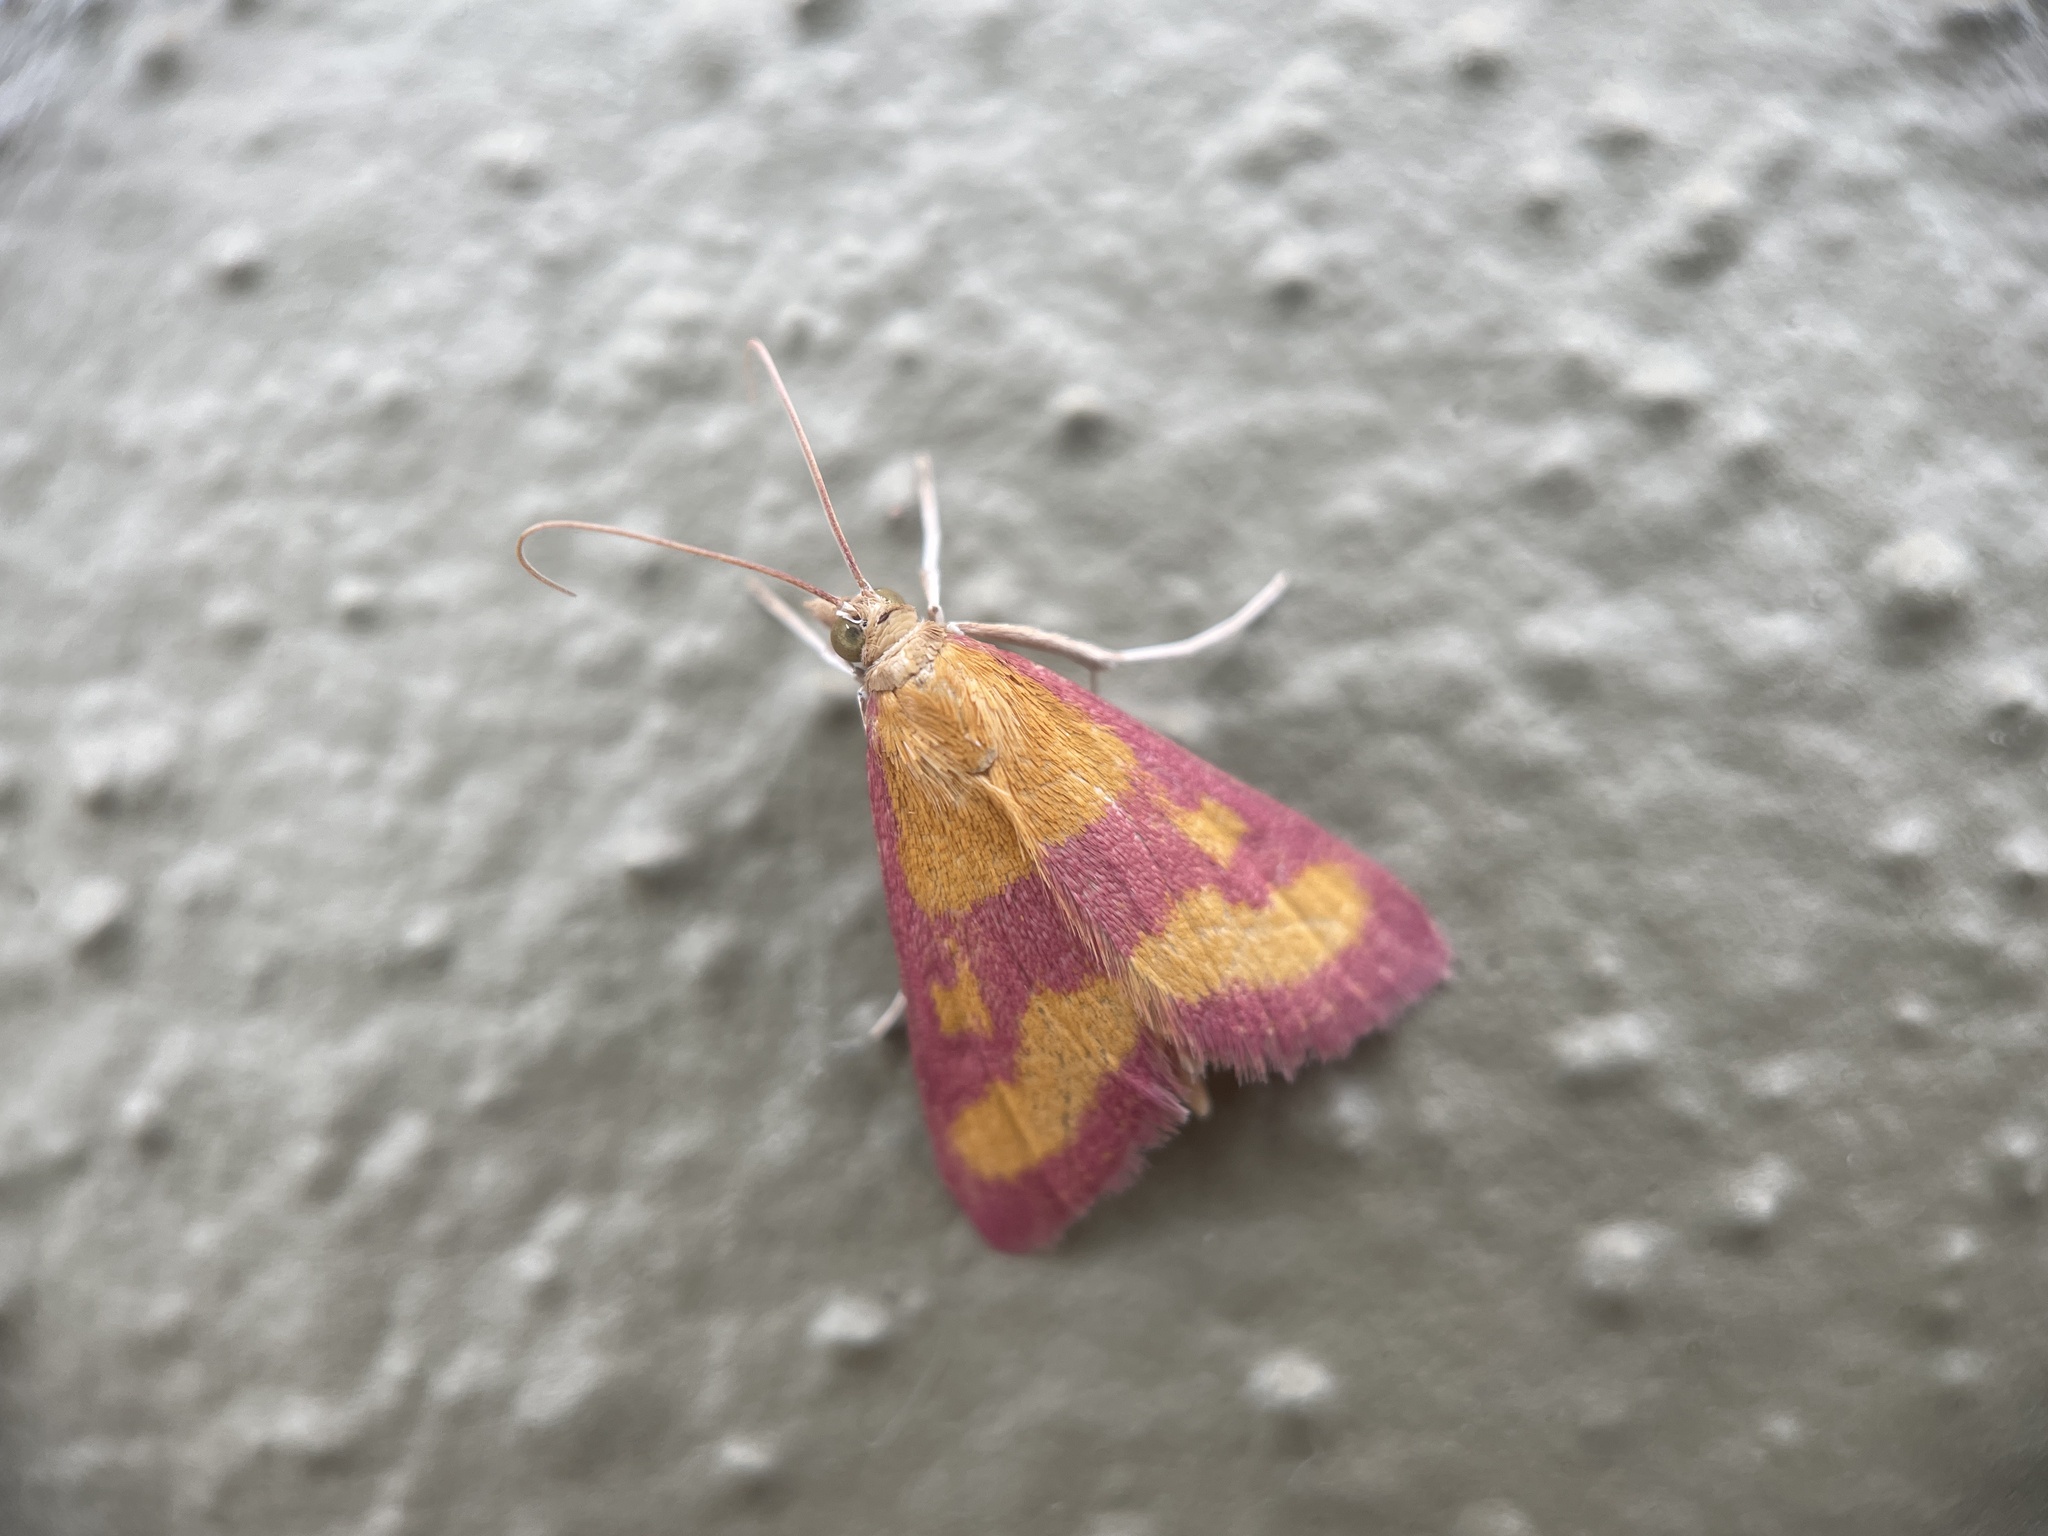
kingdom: Animalia
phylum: Arthropoda
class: Insecta
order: Lepidoptera
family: Crambidae
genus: Pyrausta
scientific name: Pyrausta laticlavia
